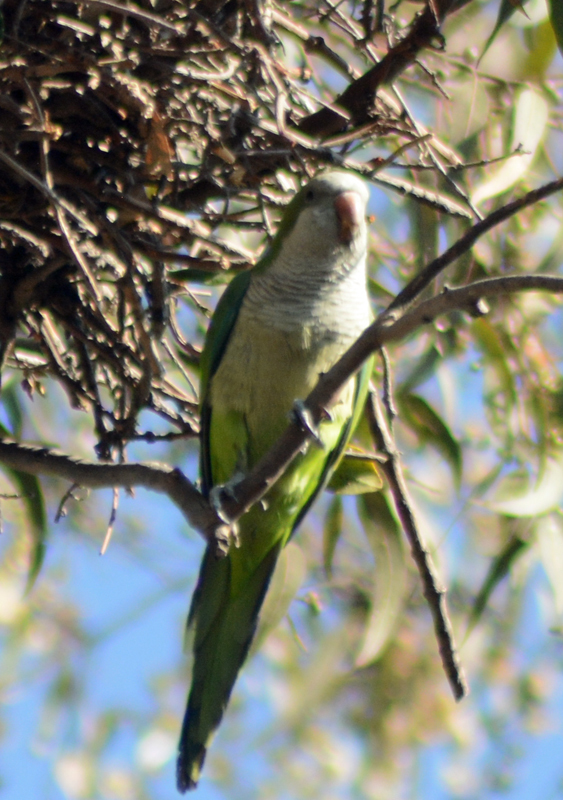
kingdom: Animalia
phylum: Chordata
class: Aves
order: Psittaciformes
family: Psittacidae
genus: Myiopsitta
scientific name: Myiopsitta monachus
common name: Monk parakeet
